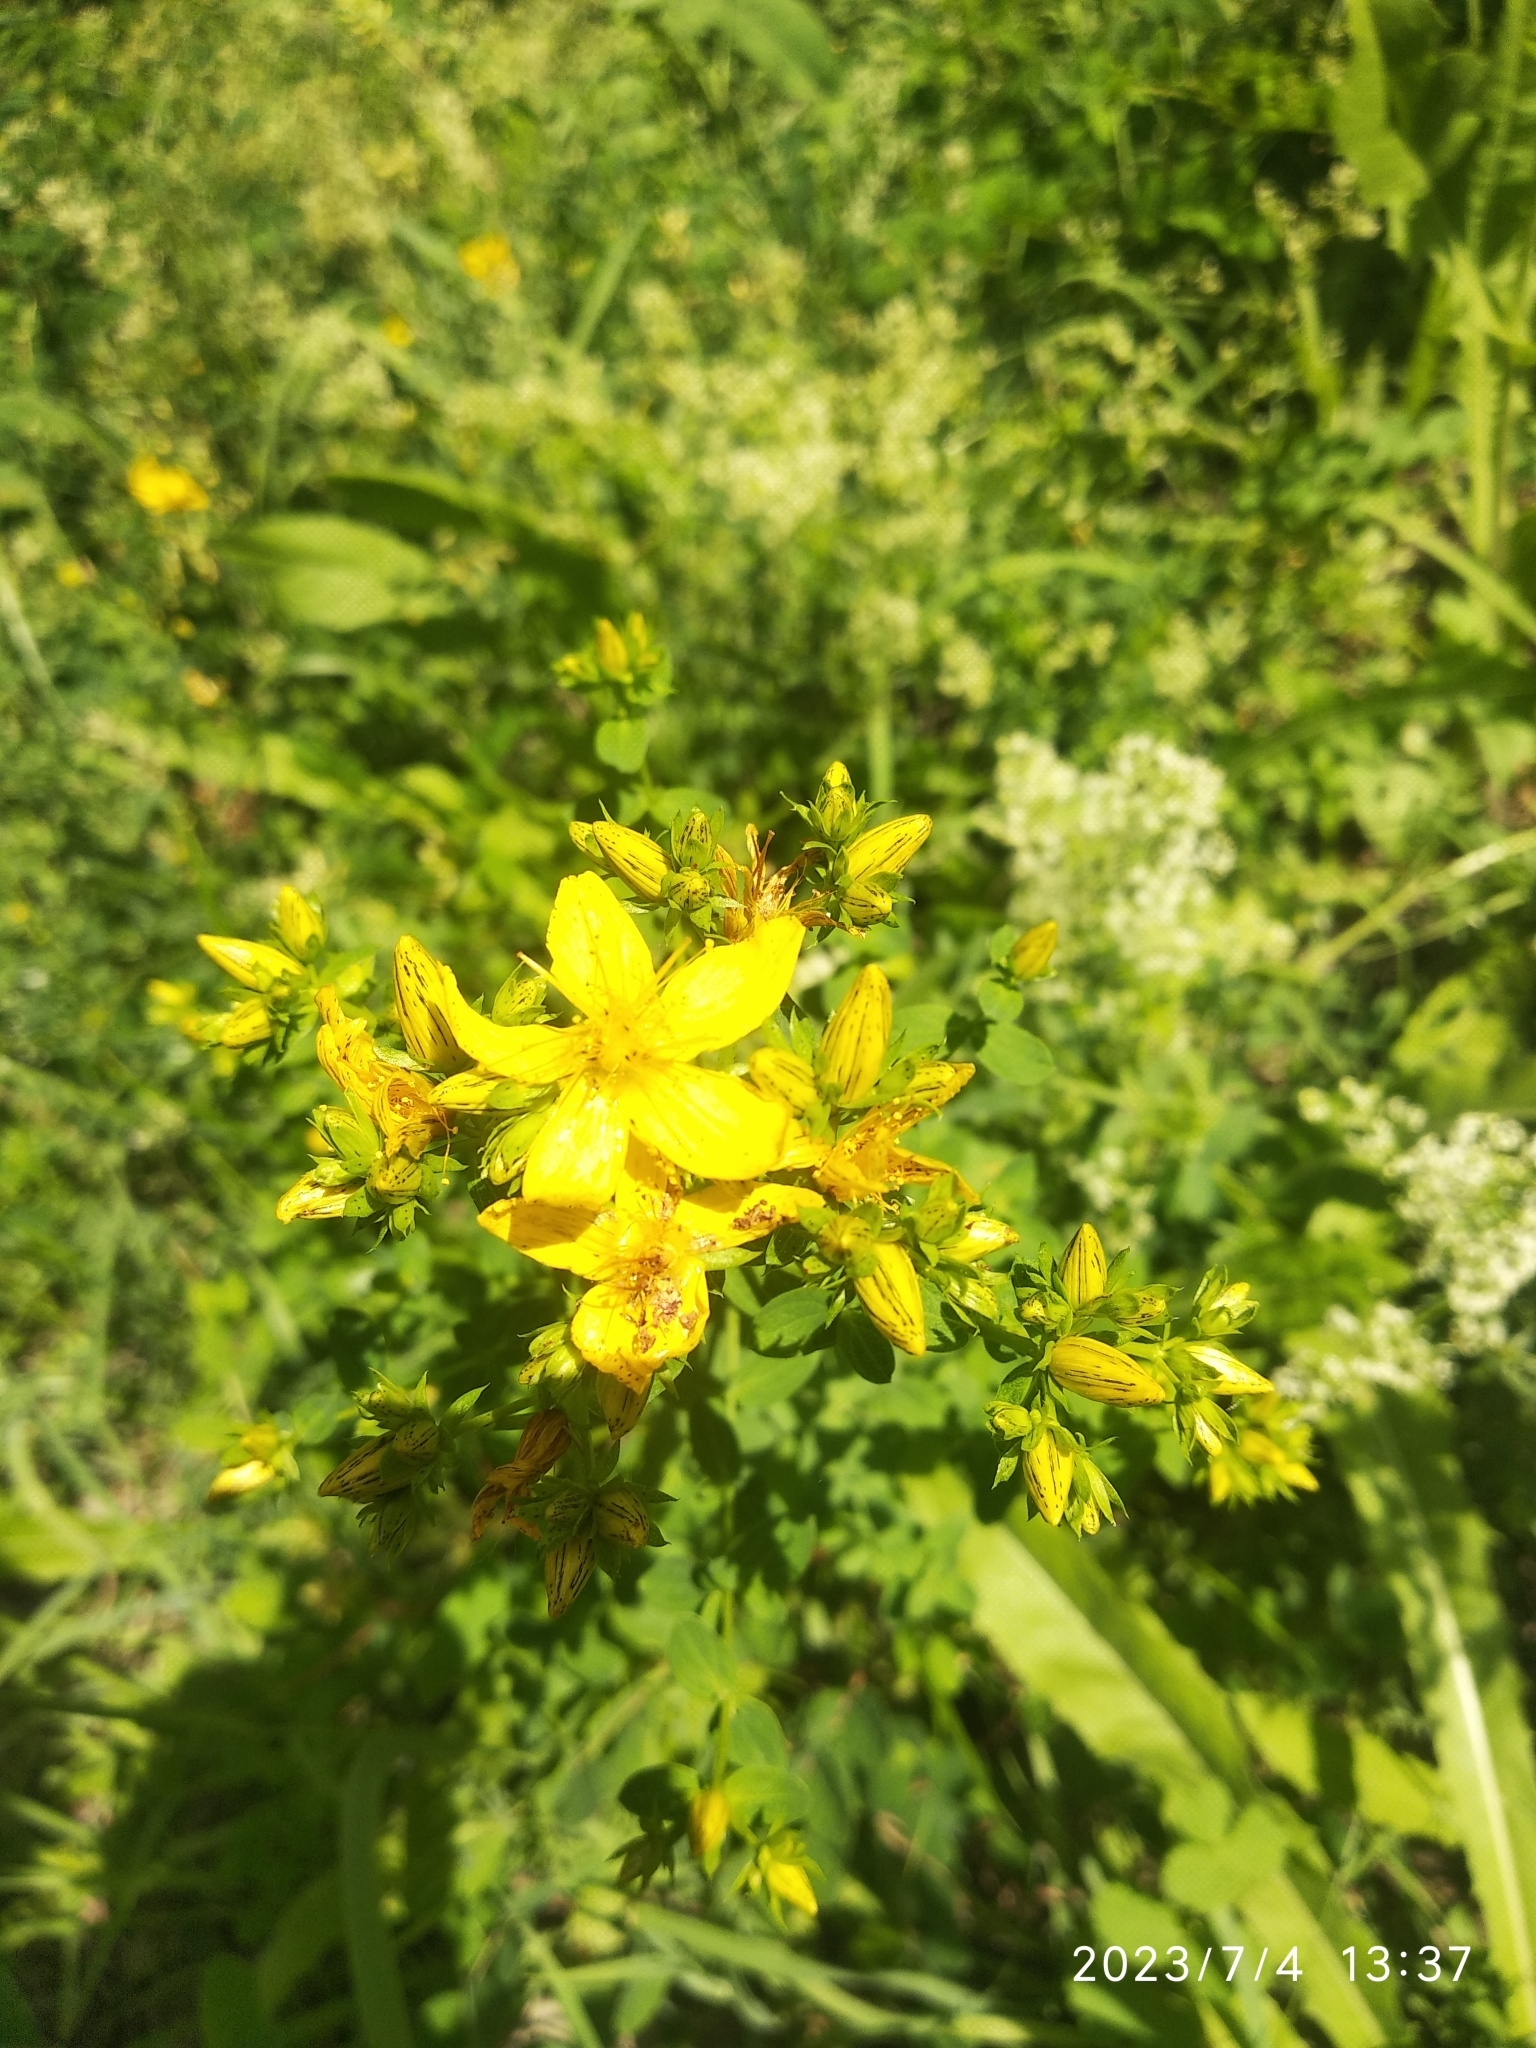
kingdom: Plantae
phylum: Tracheophyta
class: Magnoliopsida
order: Malpighiales
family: Hypericaceae
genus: Hypericum
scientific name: Hypericum perforatum
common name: Common st. johnswort
